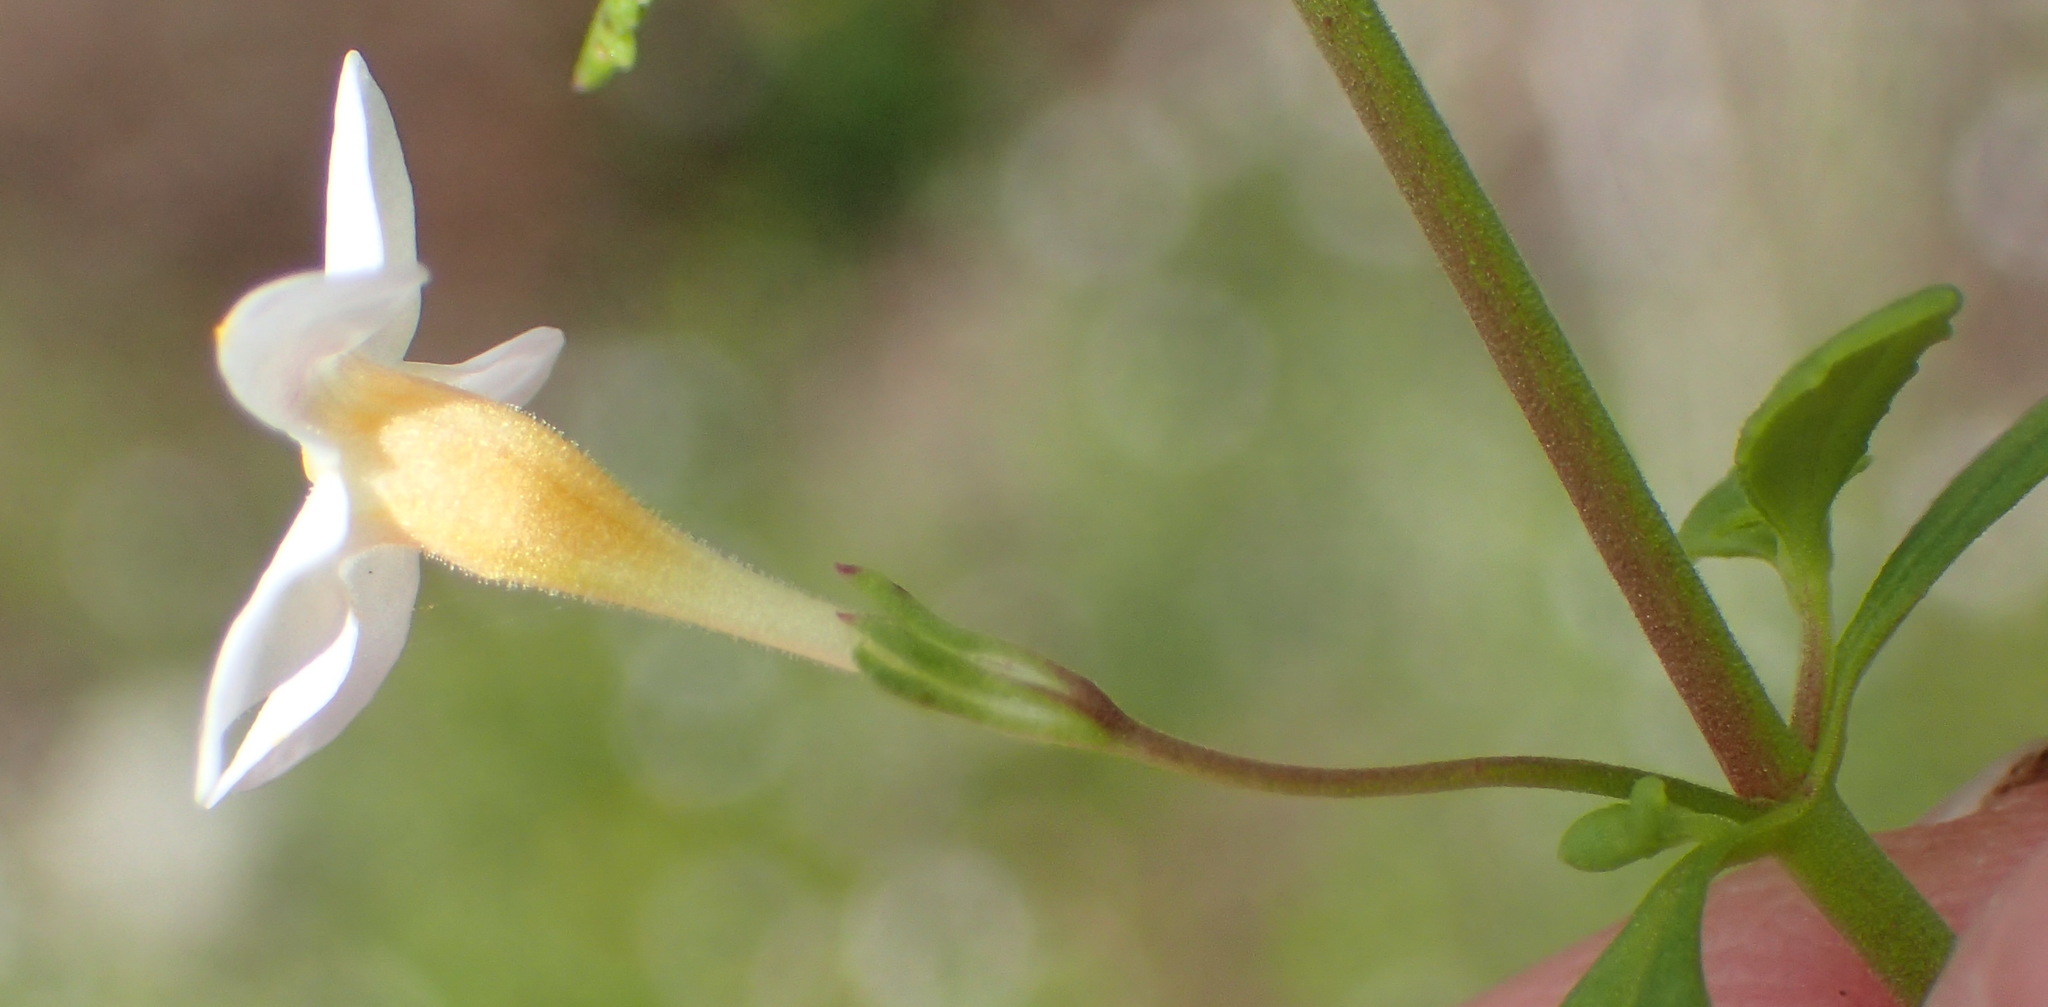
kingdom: Plantae
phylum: Tracheophyta
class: Magnoliopsida
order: Lamiales
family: Scrophulariaceae
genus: Chaenostoma
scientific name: Chaenostoma integrifolium
